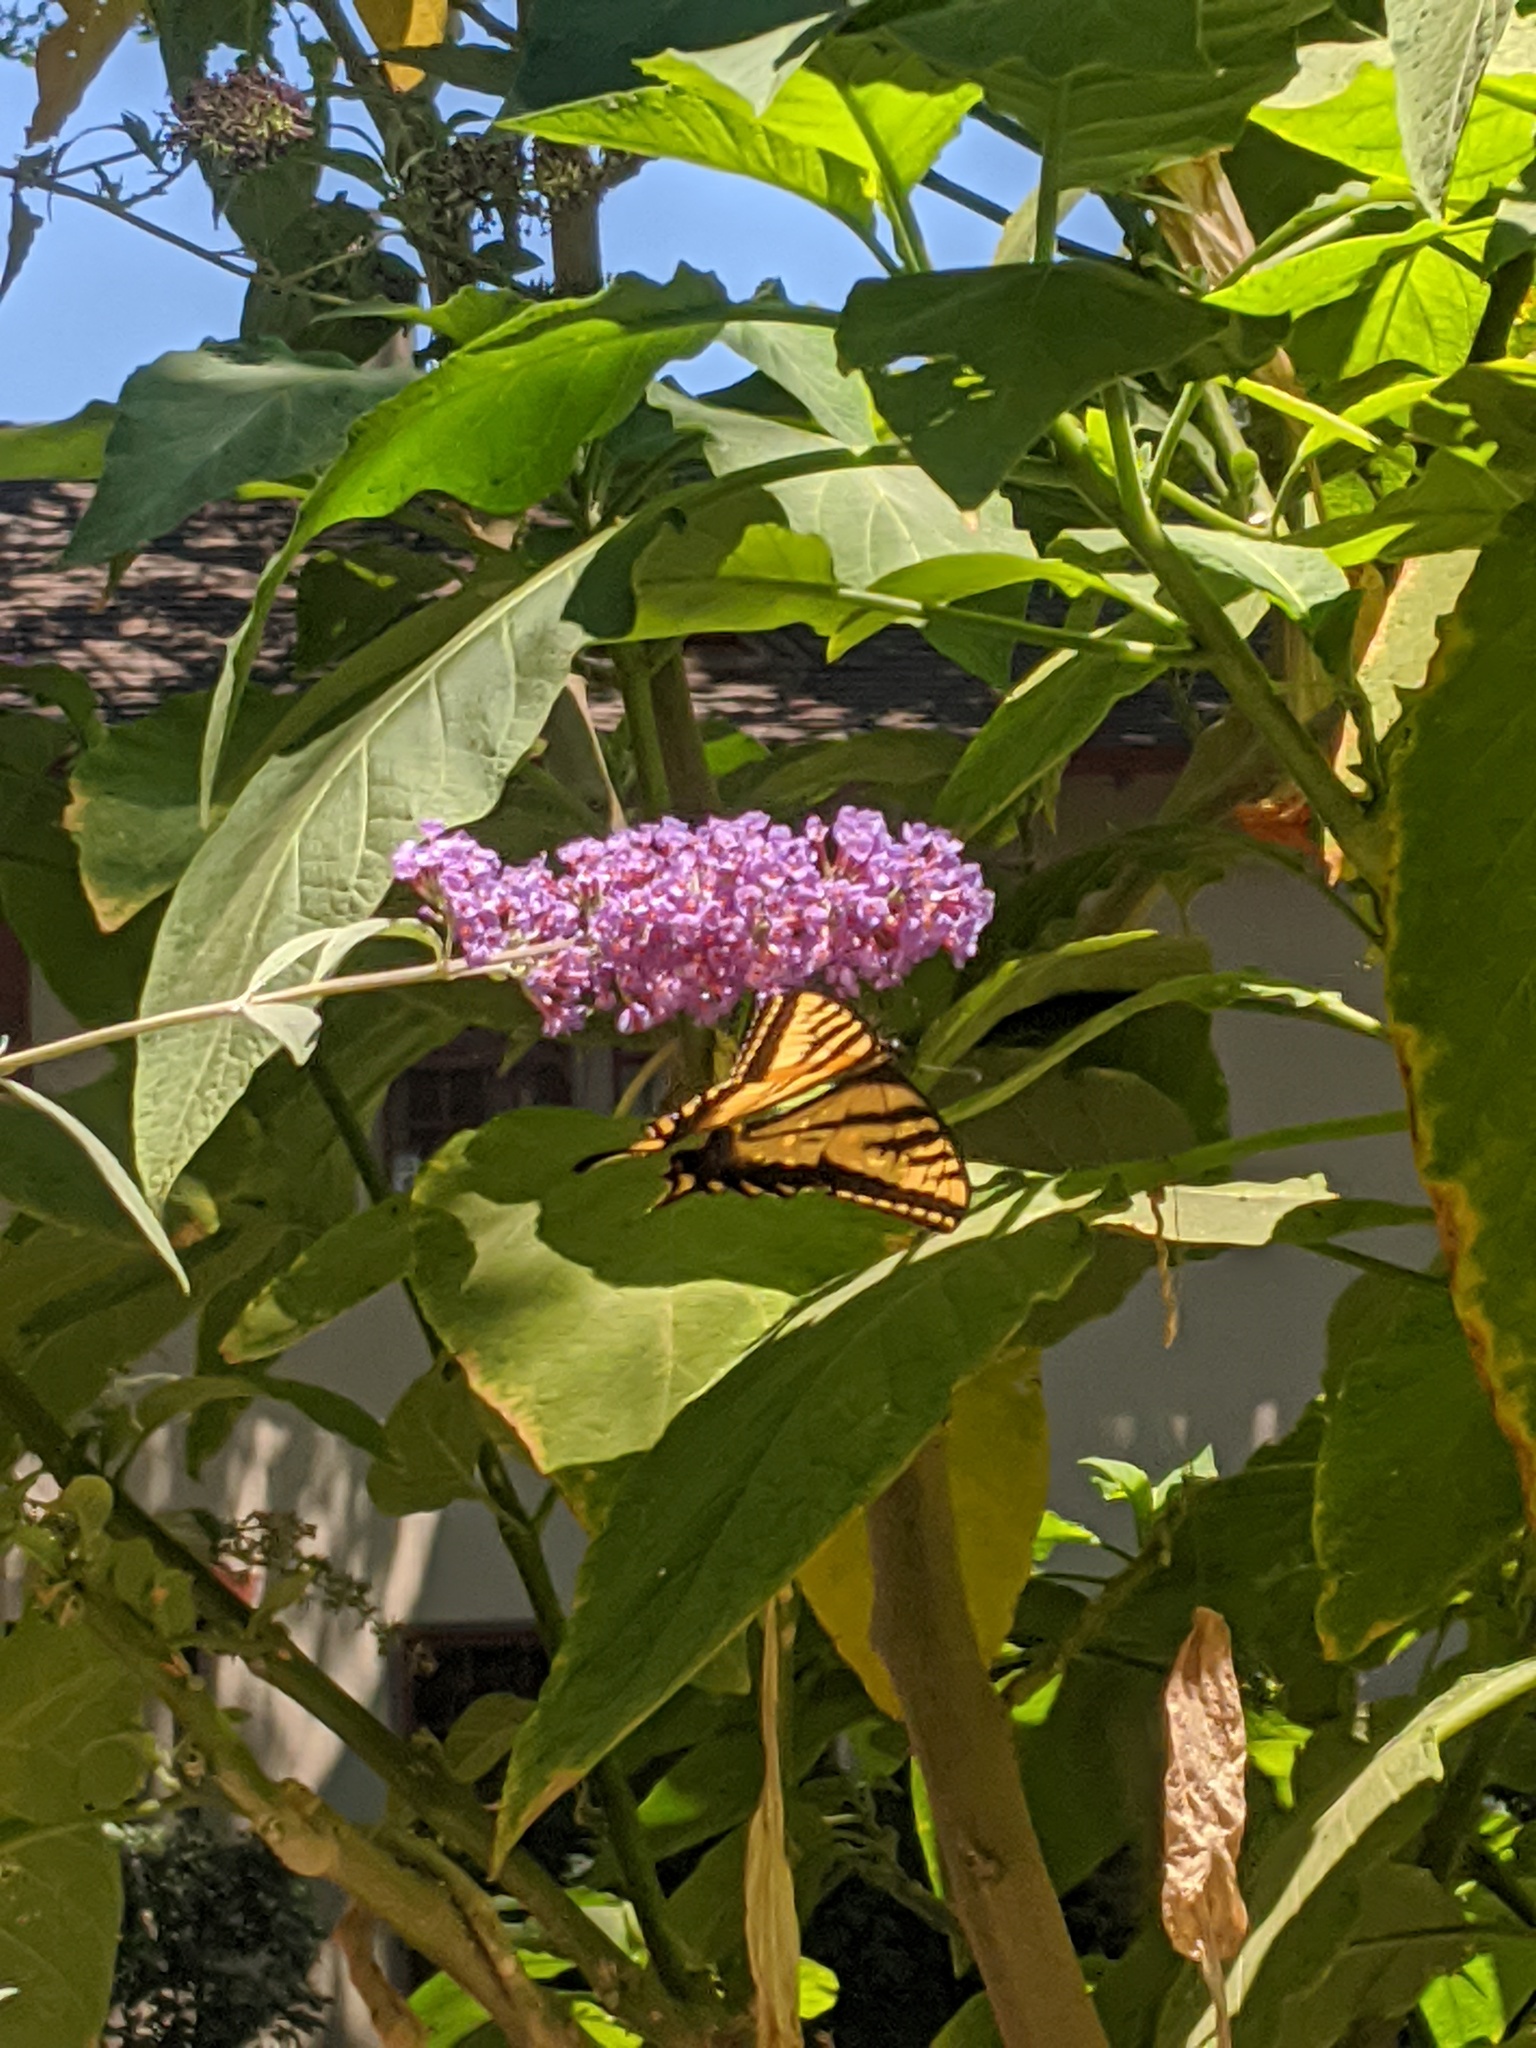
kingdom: Animalia
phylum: Arthropoda
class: Insecta
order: Lepidoptera
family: Papilionidae
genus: Papilio
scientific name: Papilio rutulus
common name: Western tiger swallowtail
